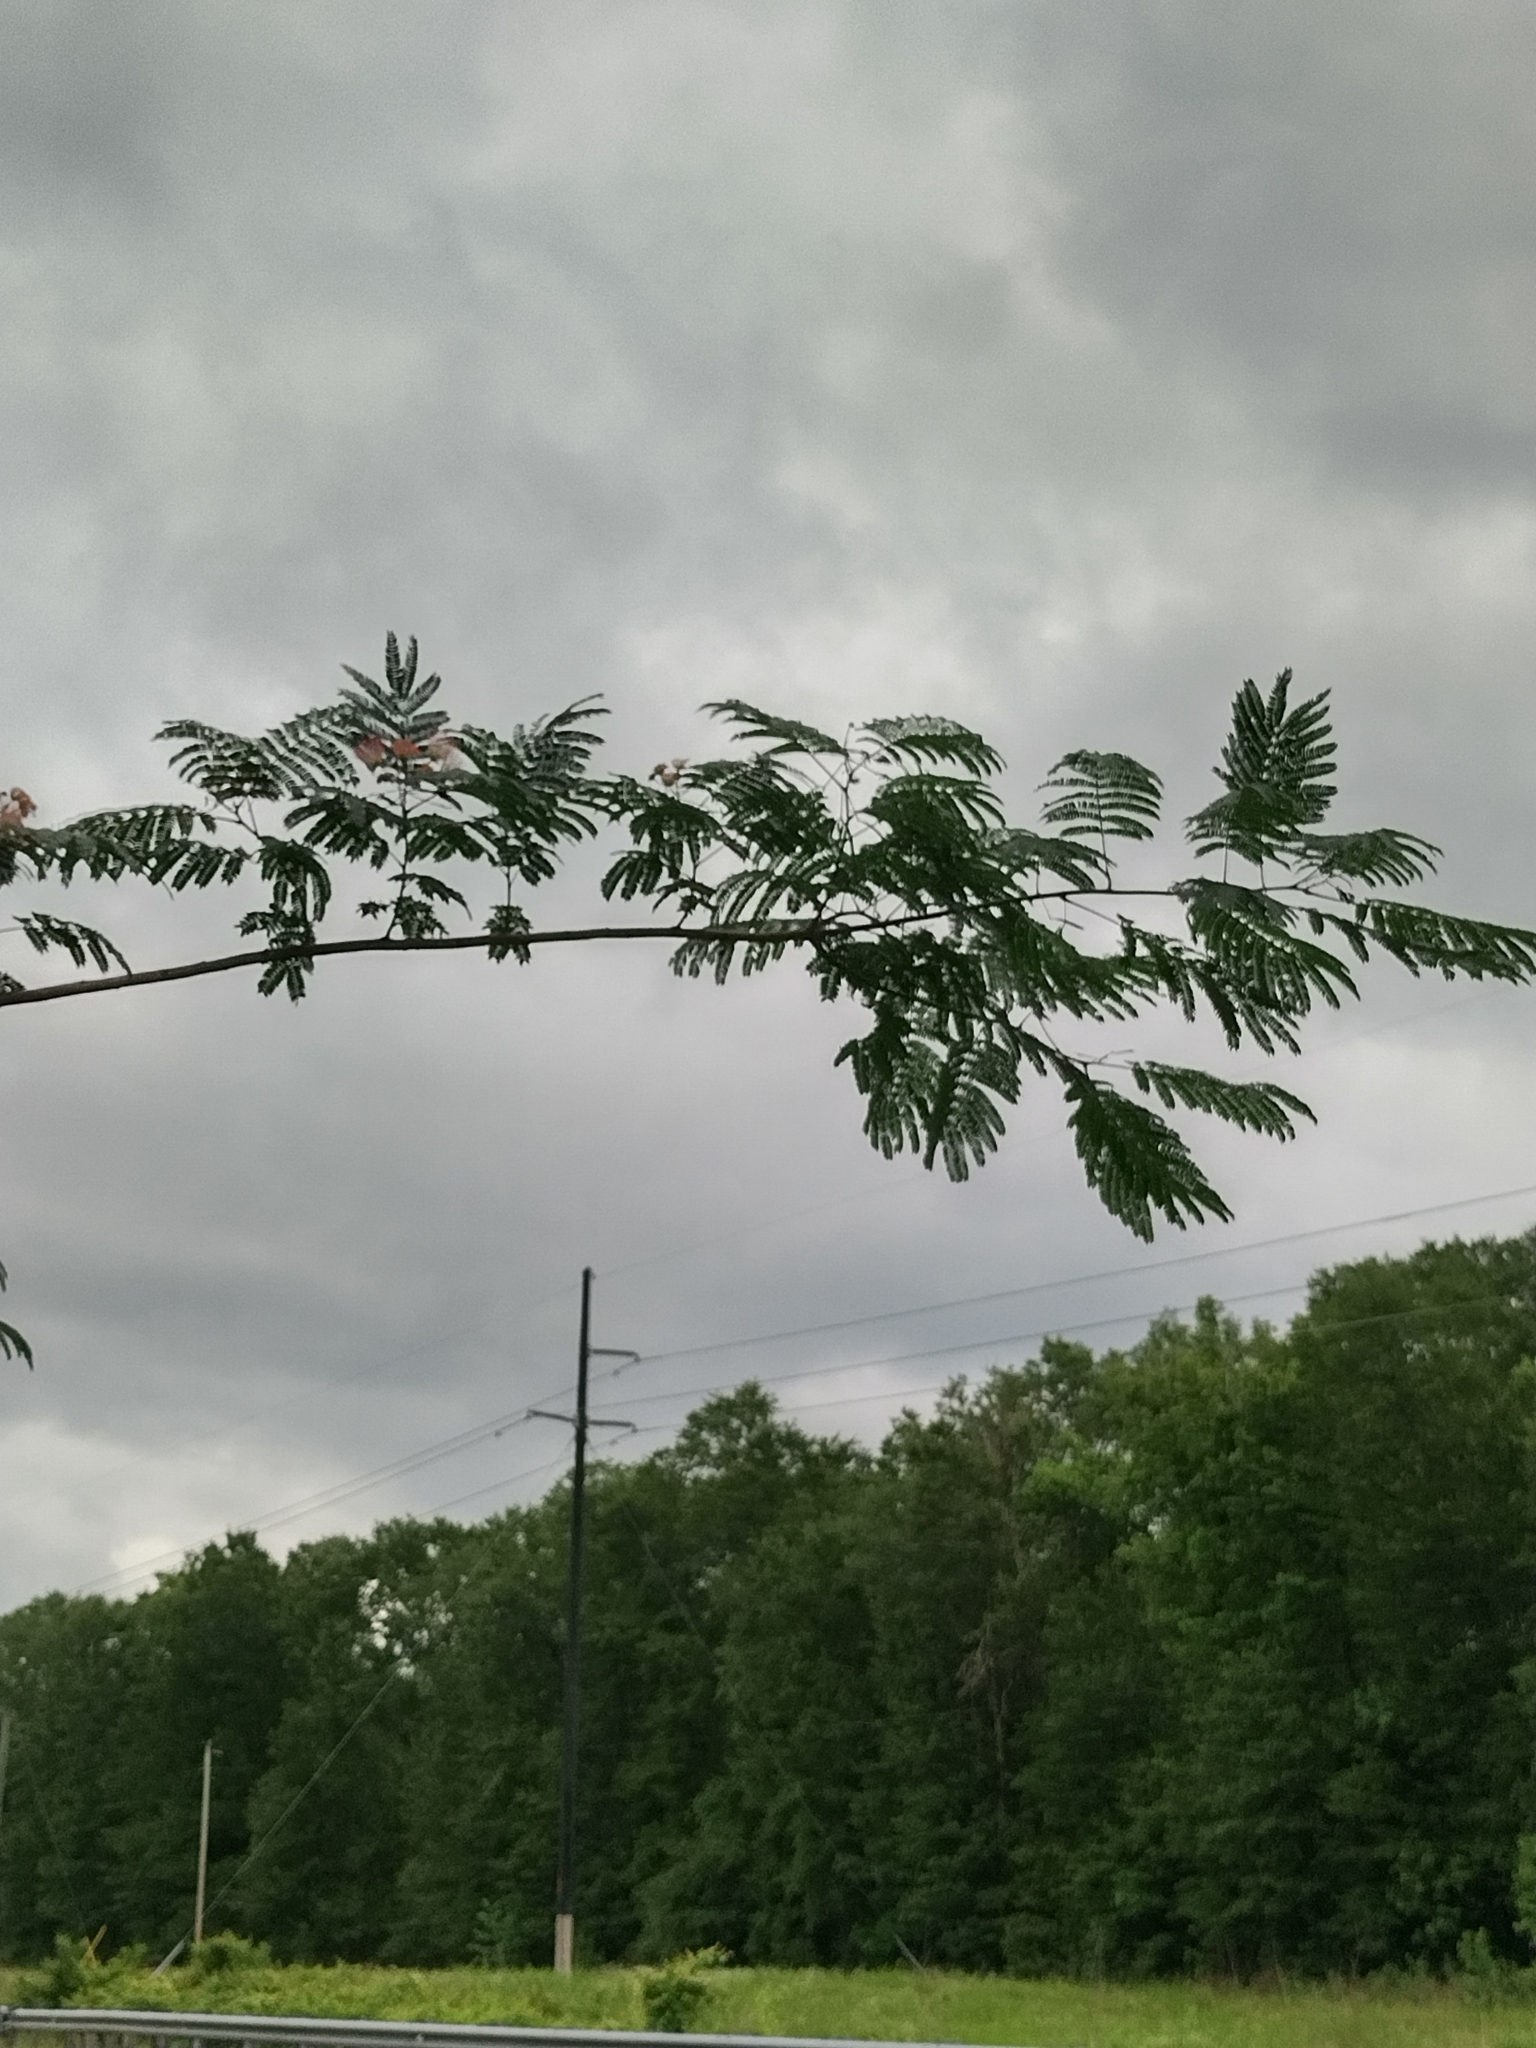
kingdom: Plantae
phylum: Tracheophyta
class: Magnoliopsida
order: Fabales
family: Fabaceae
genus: Albizia
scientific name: Albizia julibrissin
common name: Silktree
